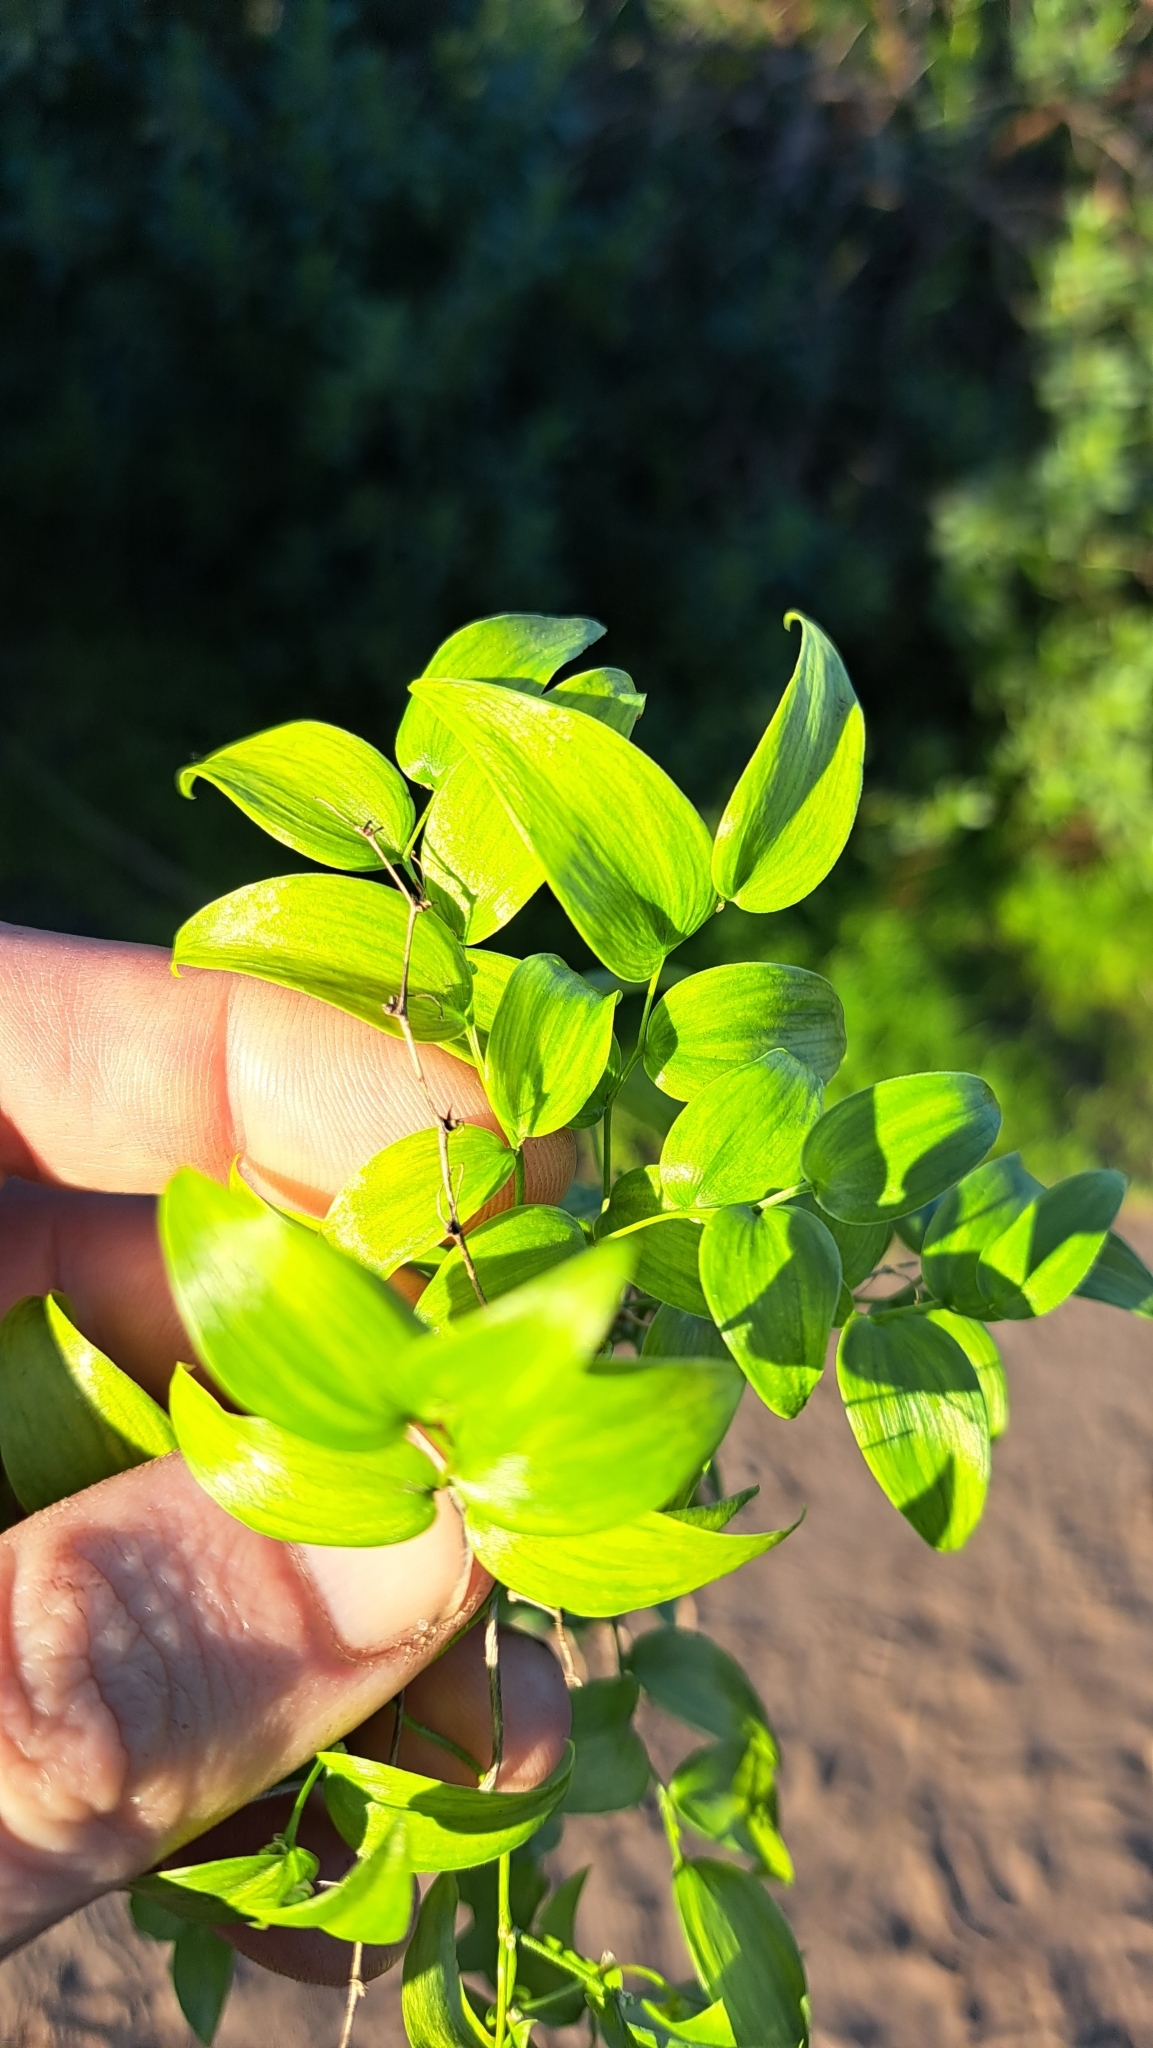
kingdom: Plantae
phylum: Tracheophyta
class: Liliopsida
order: Asparagales
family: Asparagaceae
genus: Asparagus
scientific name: Asparagus asparagoides
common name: African asparagus fern
